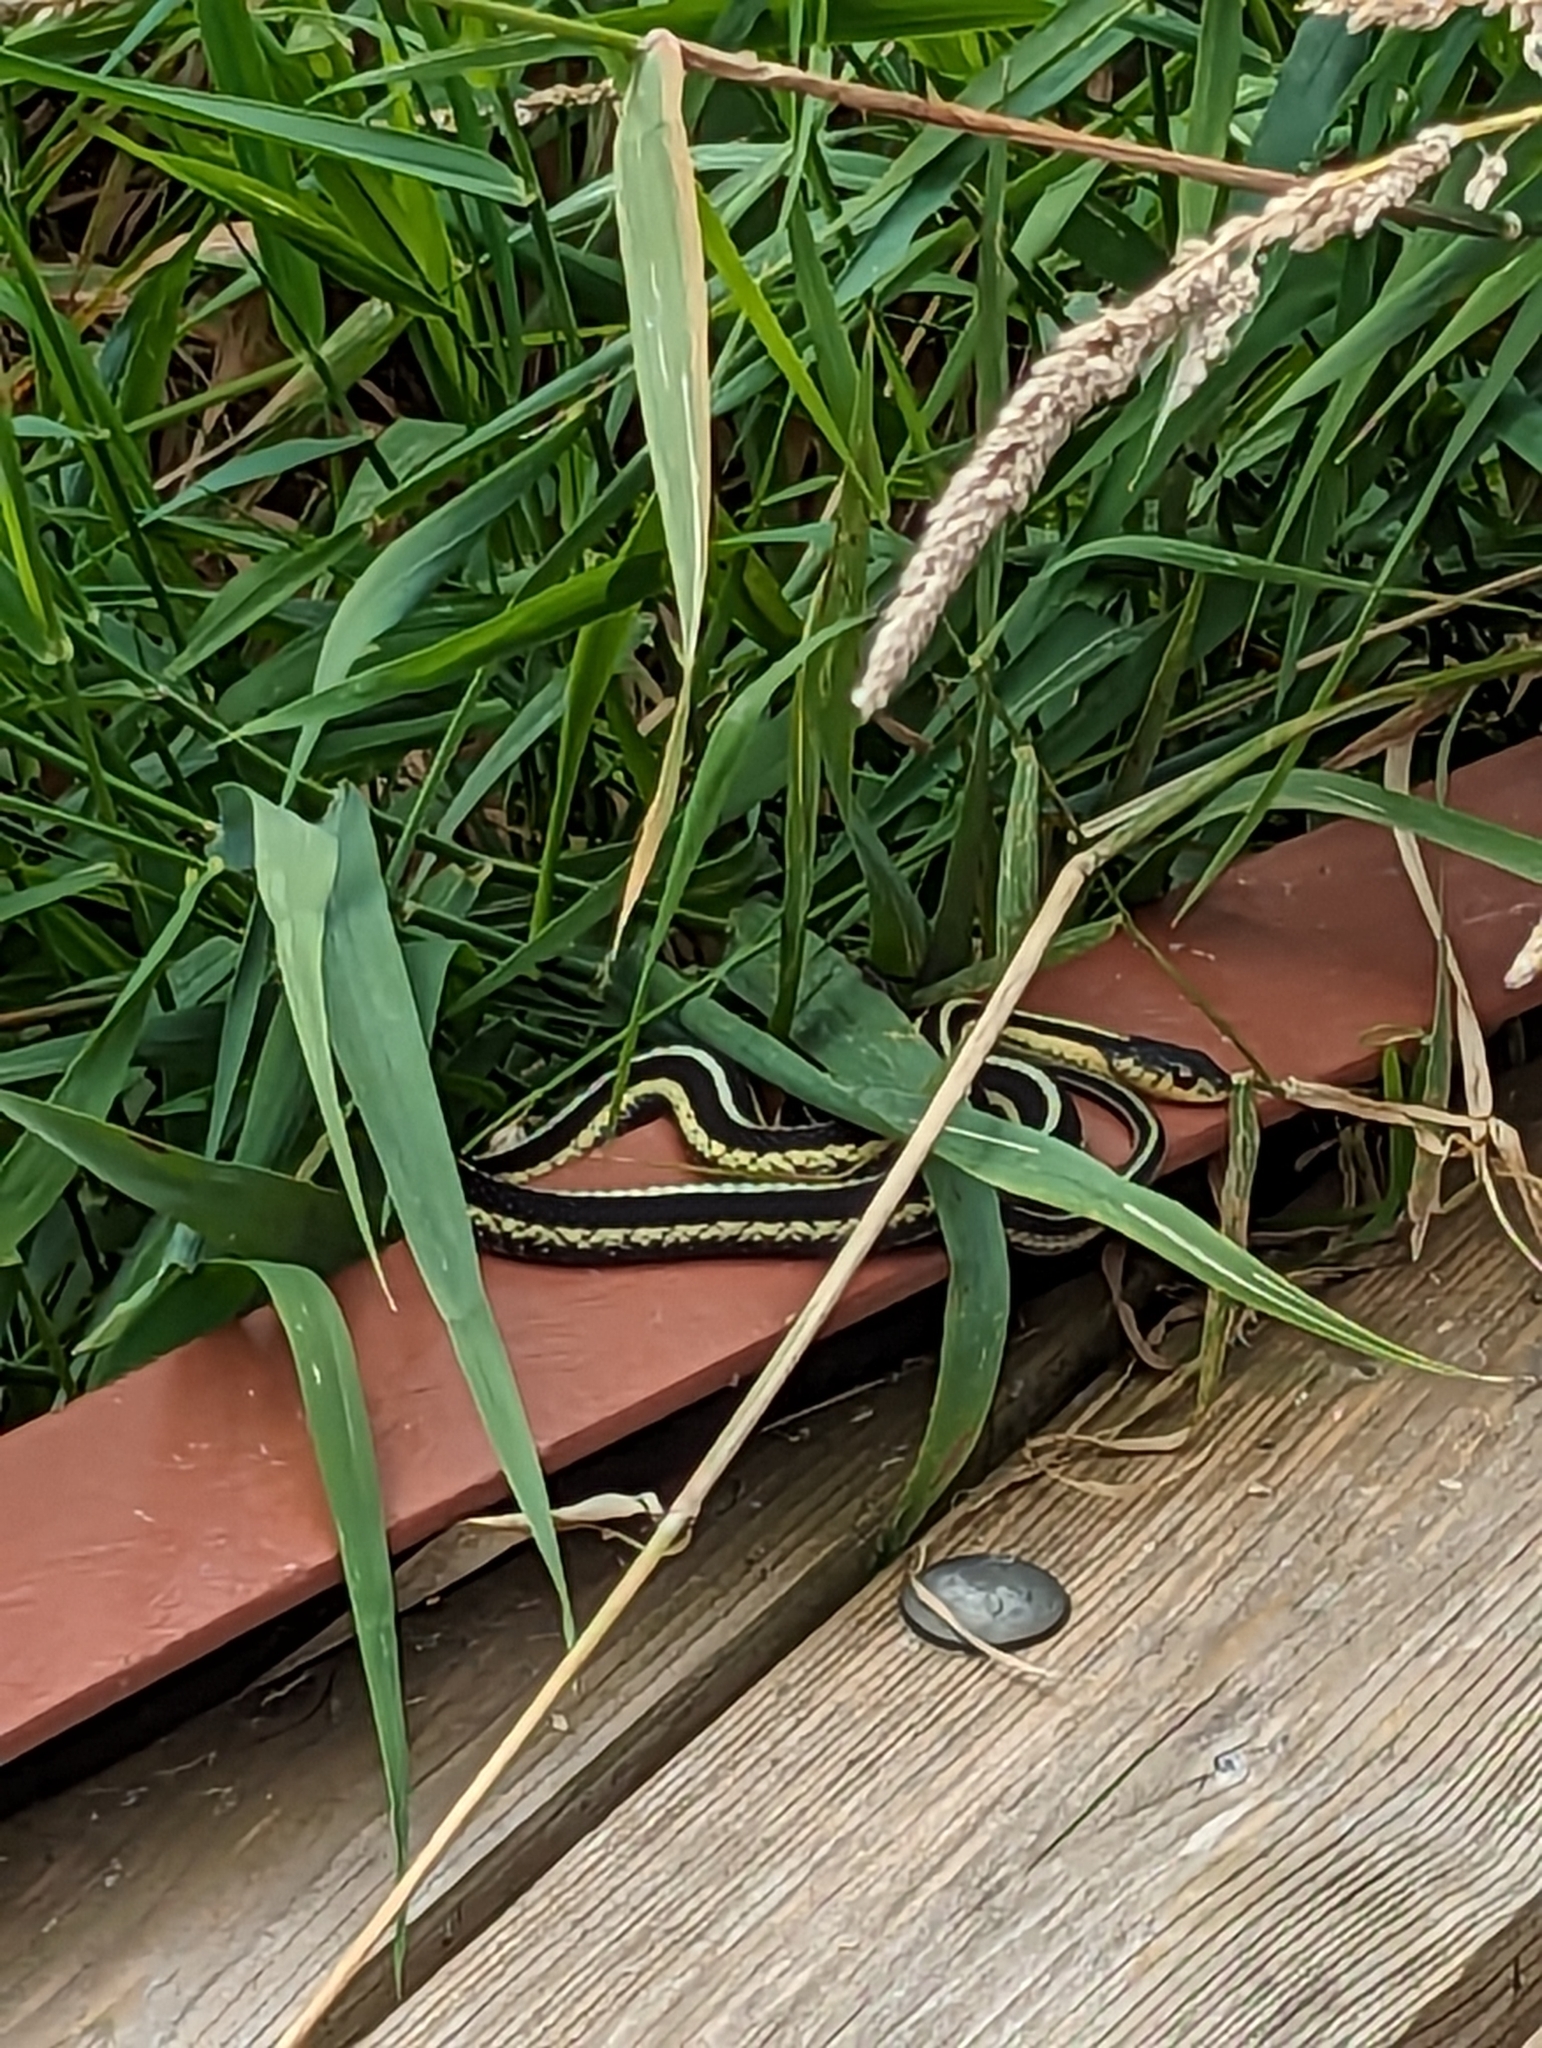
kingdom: Animalia
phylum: Chordata
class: Squamata
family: Colubridae
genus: Thamnophis
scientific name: Thamnophis sirtalis
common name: Common garter snake
